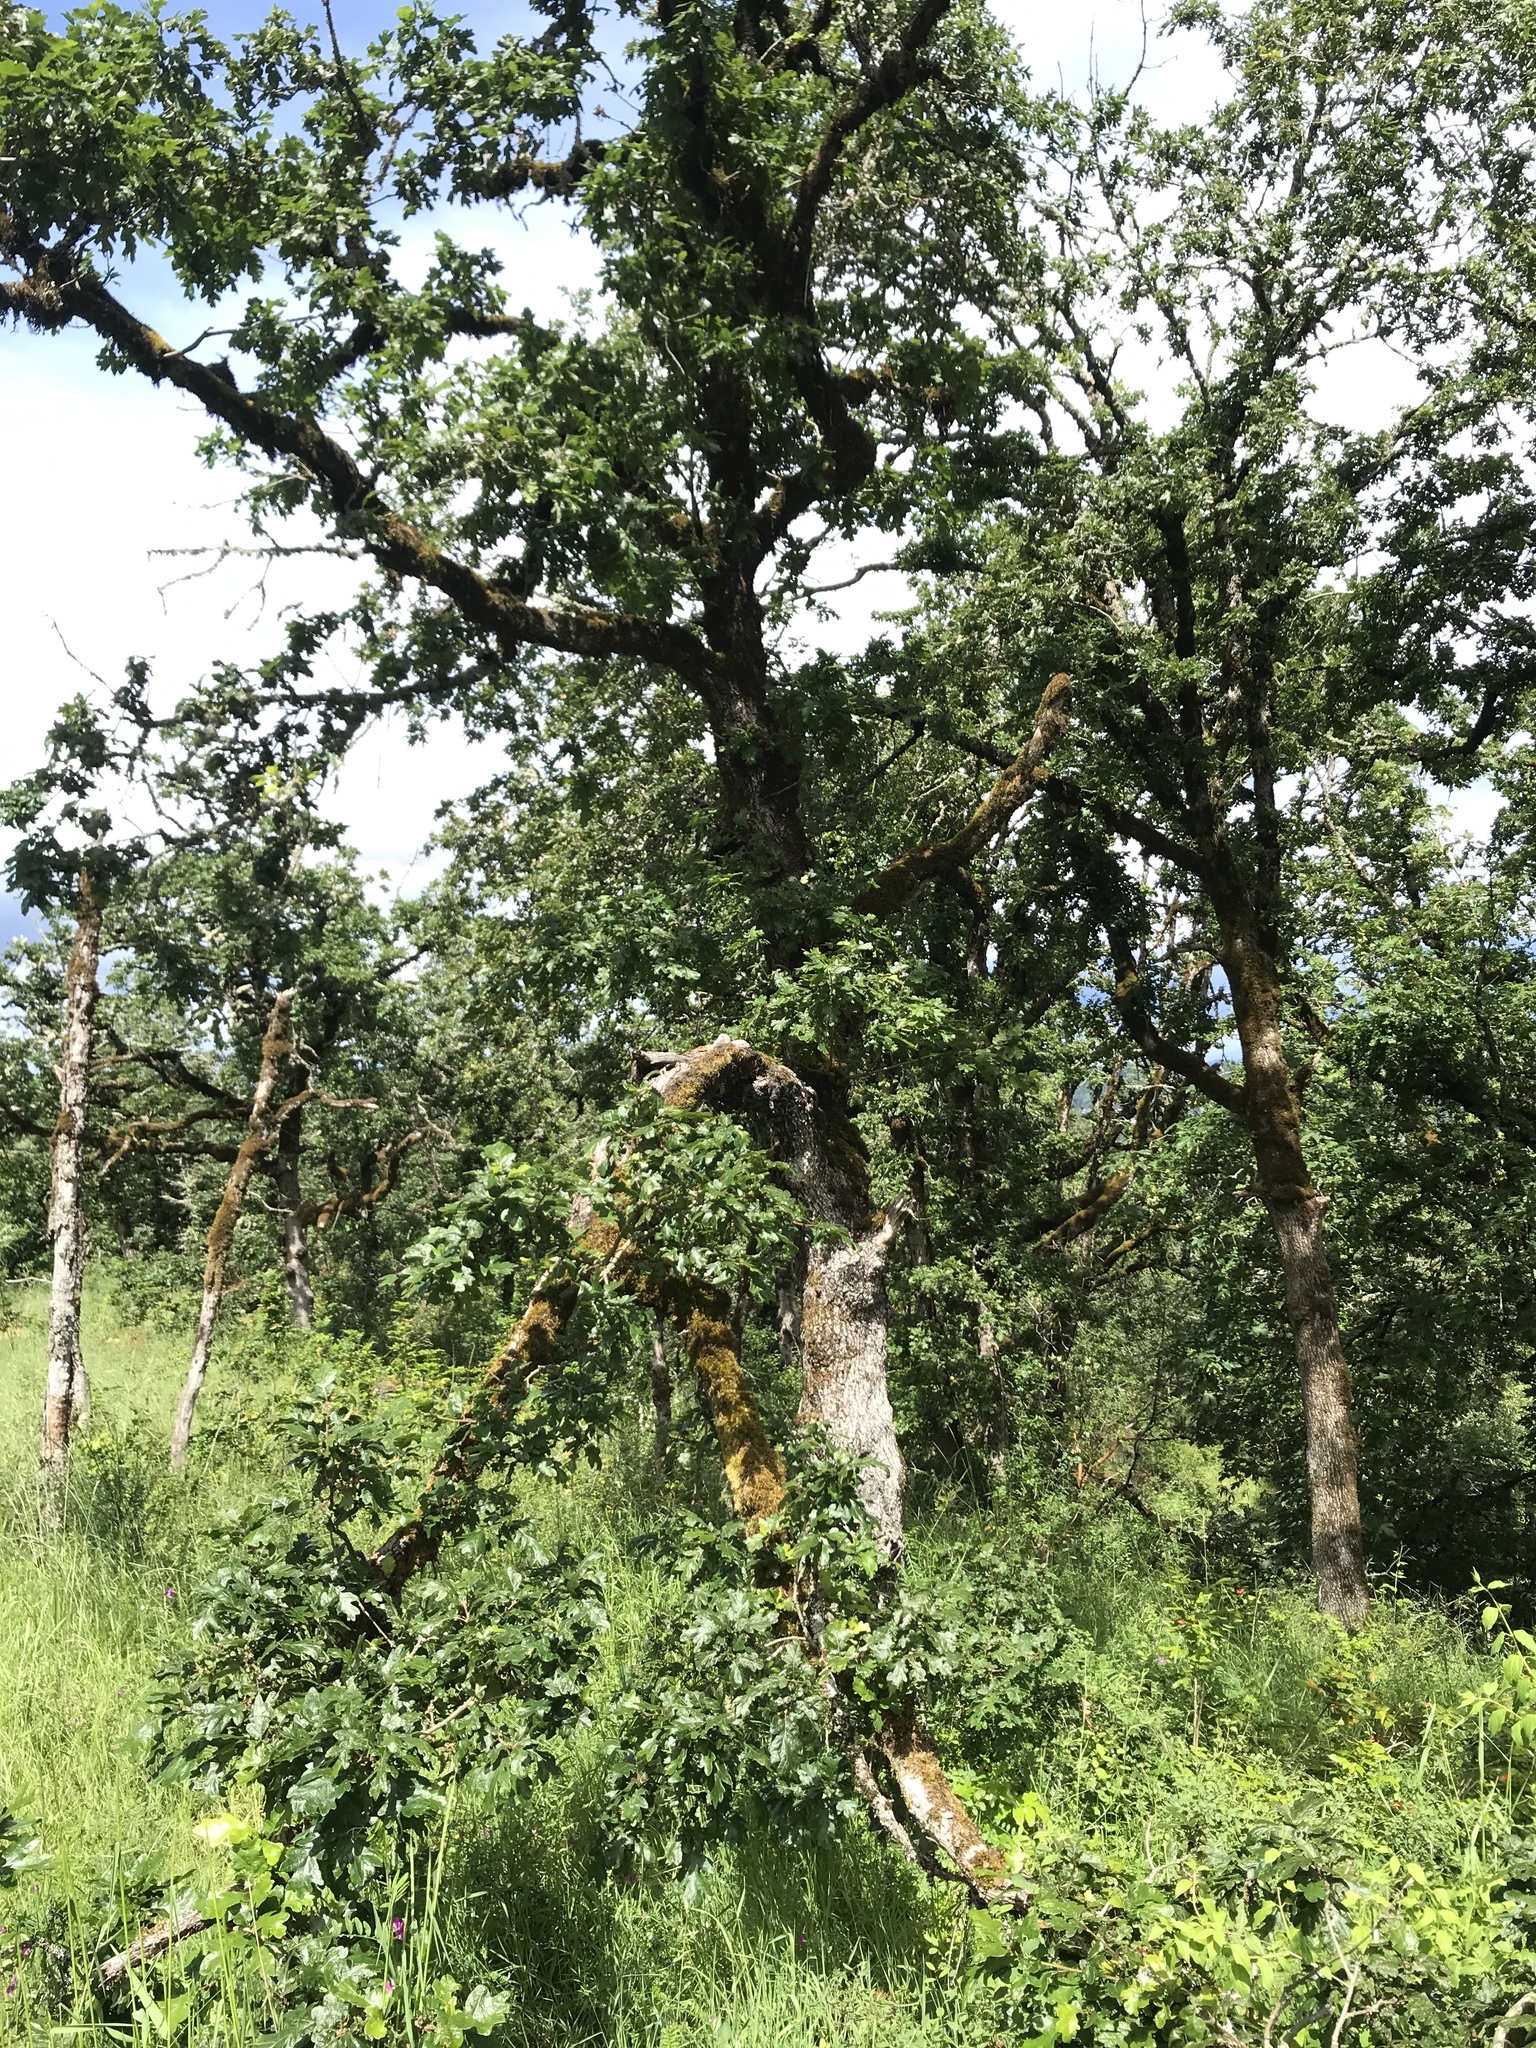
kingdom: Plantae
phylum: Tracheophyta
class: Magnoliopsida
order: Fagales
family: Fagaceae
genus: Quercus
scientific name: Quercus garryana
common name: Garry oak
